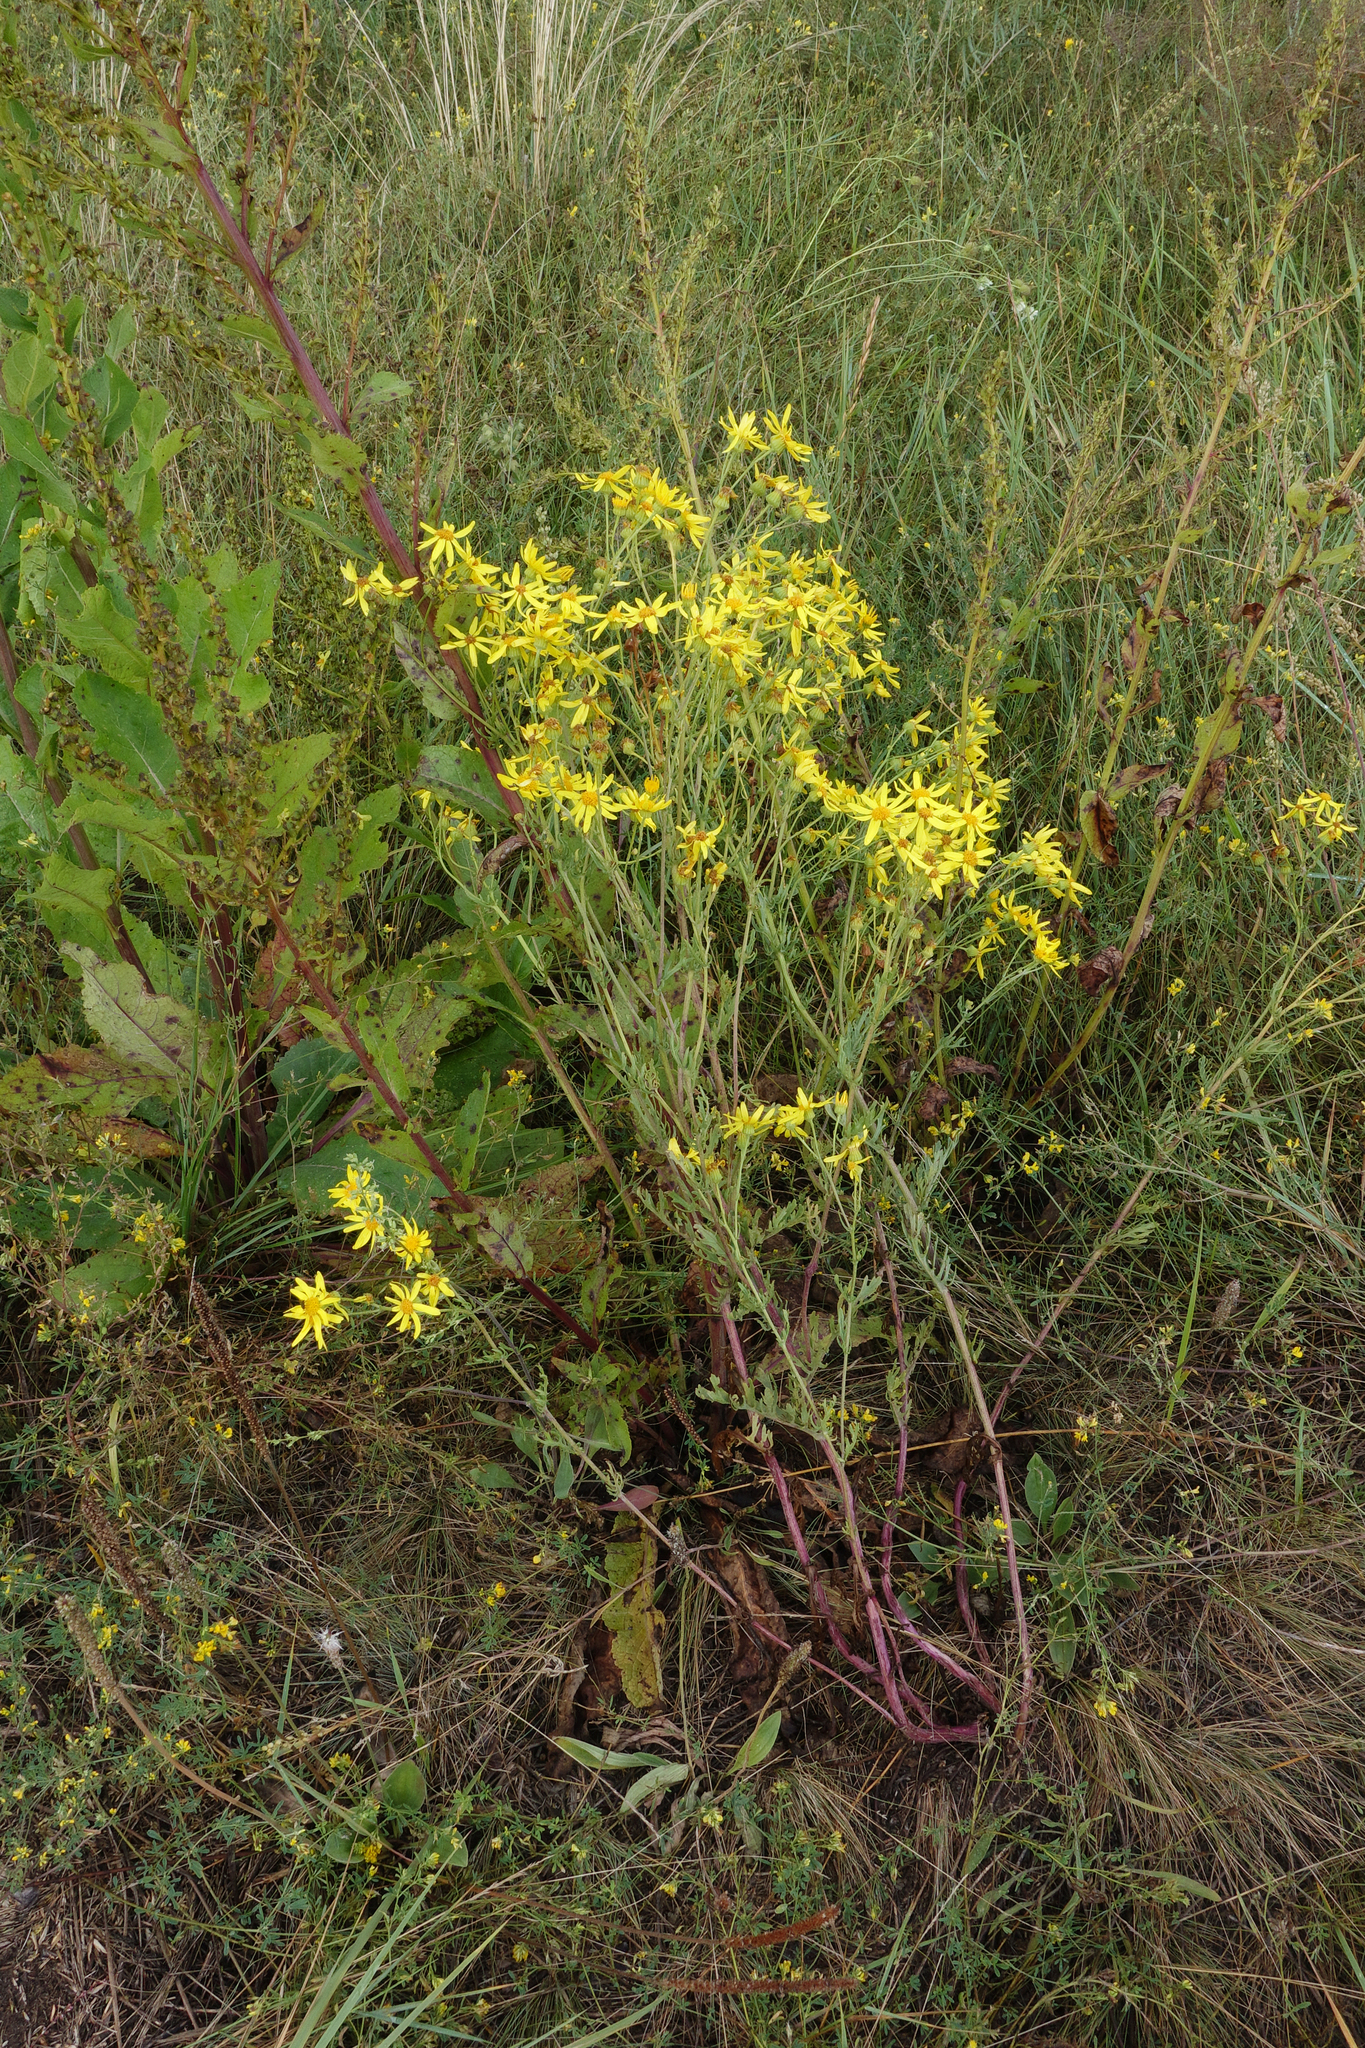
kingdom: Plantae
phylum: Tracheophyta
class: Magnoliopsida
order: Asterales
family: Asteraceae
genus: Jacobaea
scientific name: Jacobaea erucifolia
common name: Hoary ragwort
